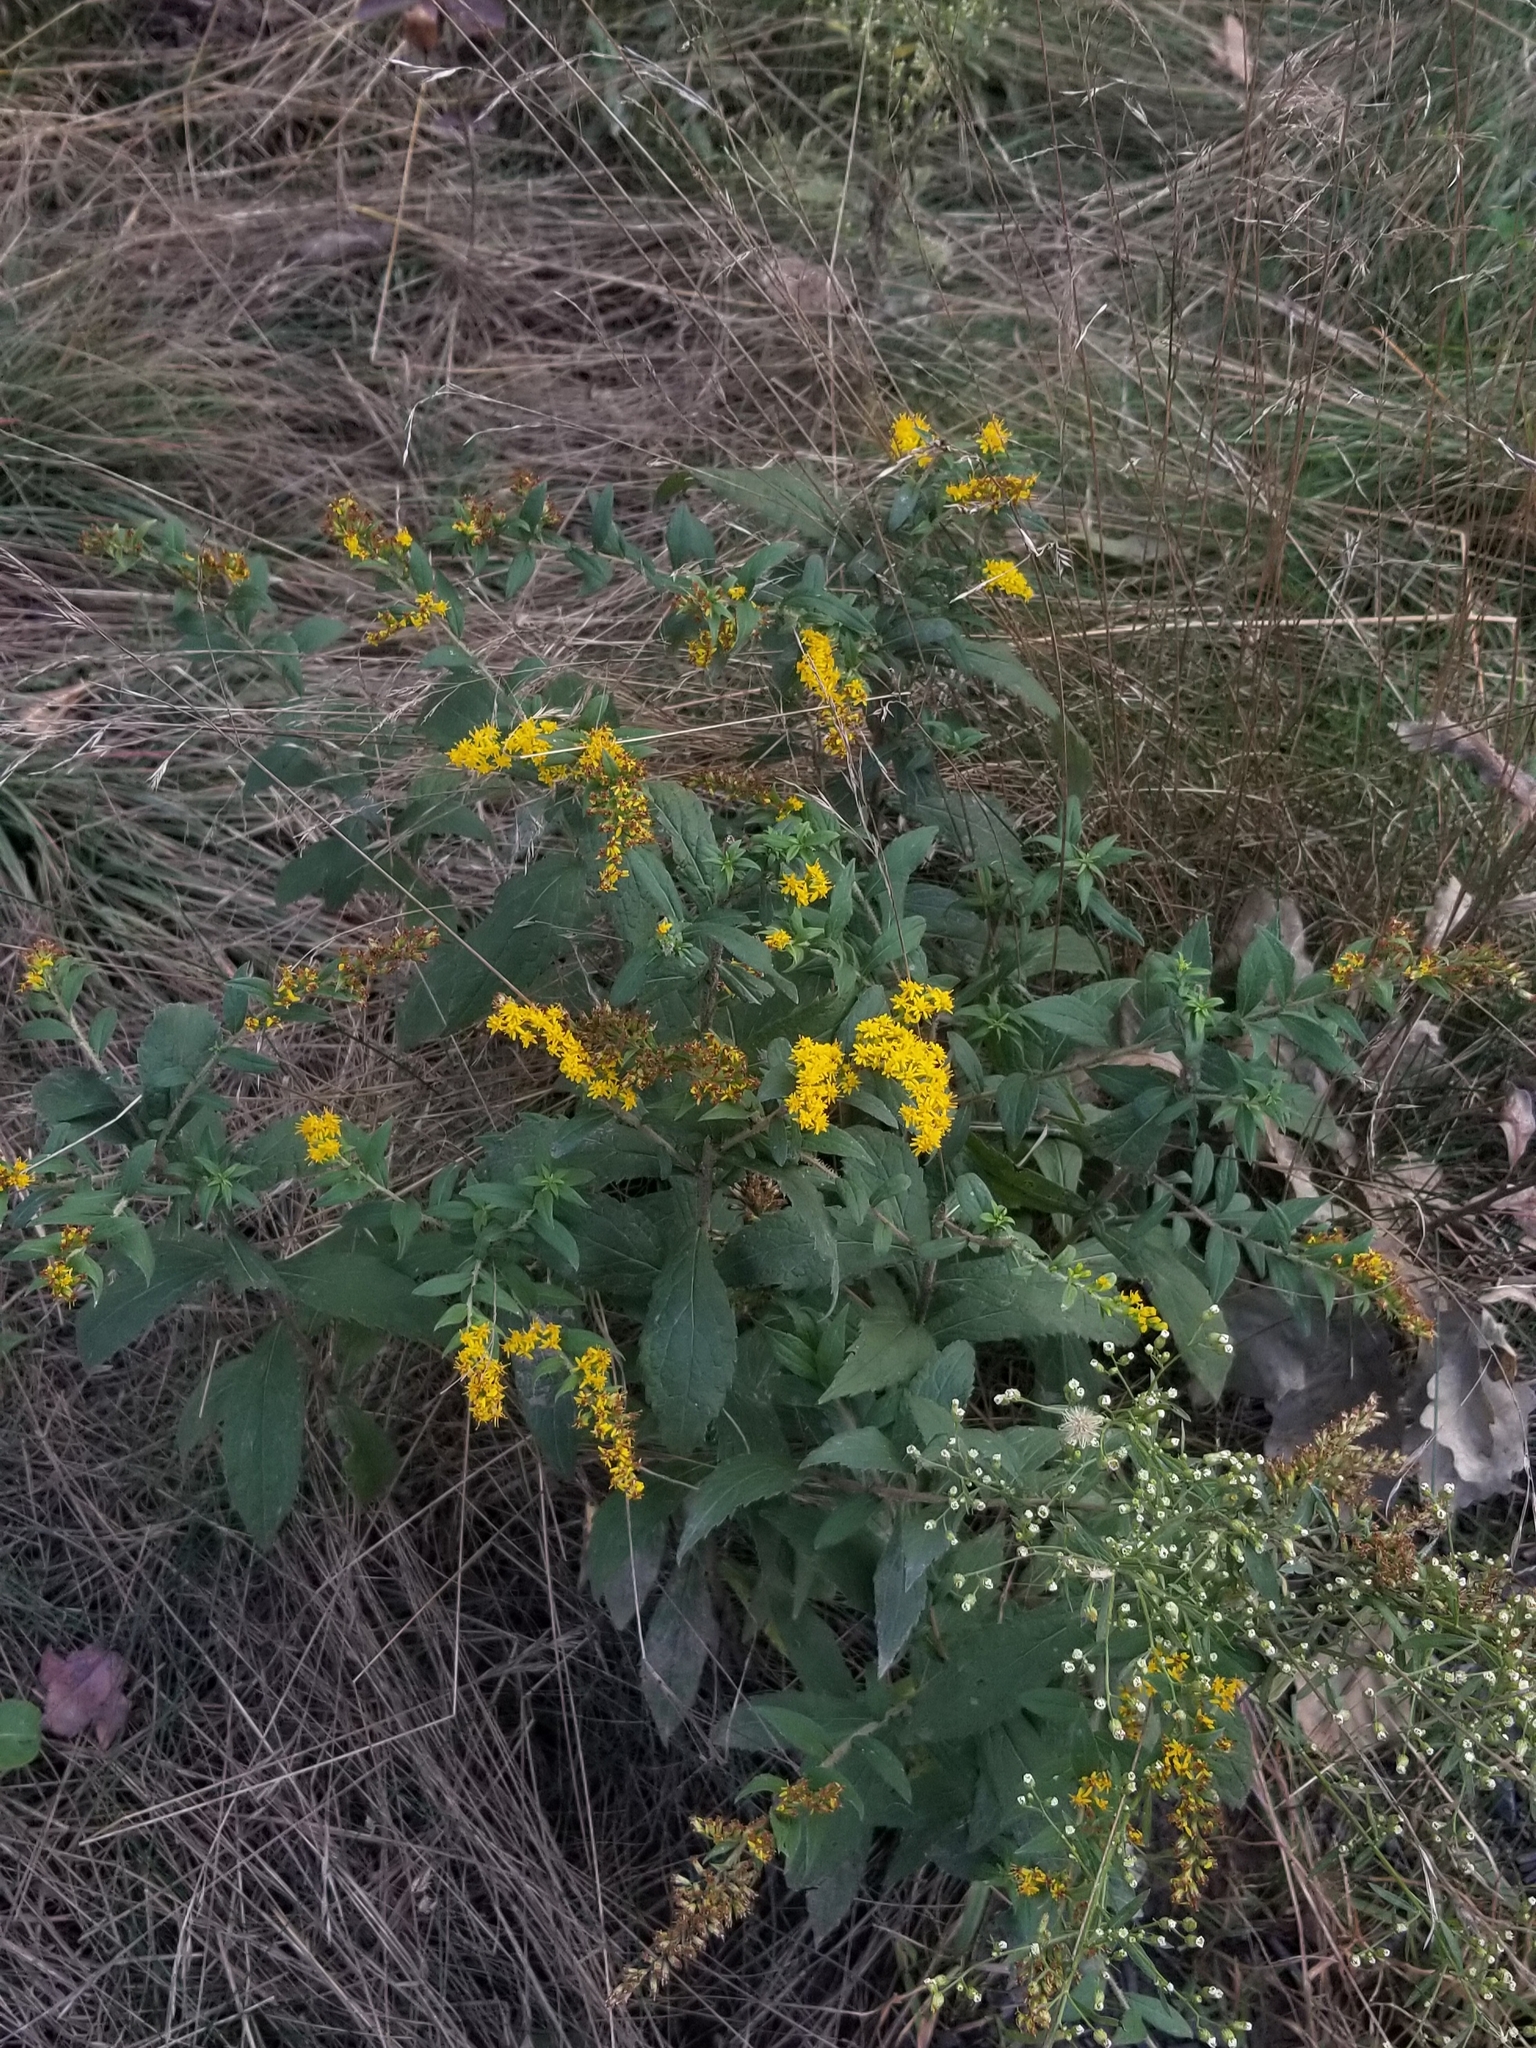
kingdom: Plantae
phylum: Tracheophyta
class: Magnoliopsida
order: Asterales
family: Asteraceae
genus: Solidago
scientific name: Solidago rugosa
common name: Rough-stemmed goldenrod
